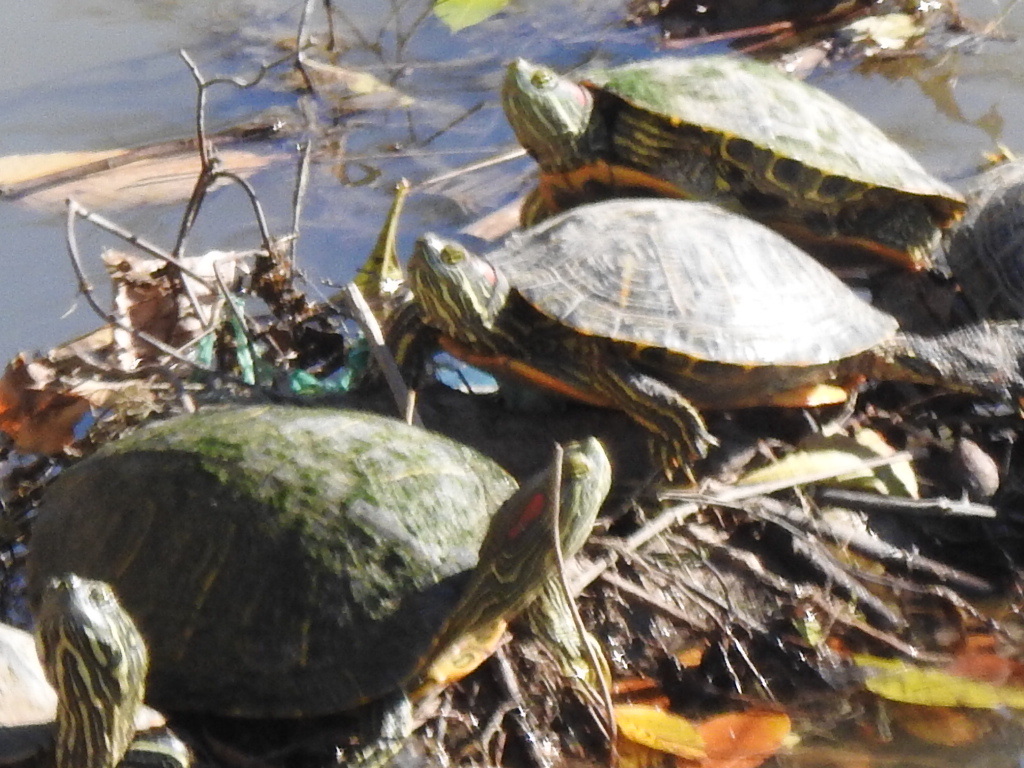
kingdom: Animalia
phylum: Chordata
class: Testudines
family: Emydidae
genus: Trachemys
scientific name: Trachemys scripta
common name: Slider
